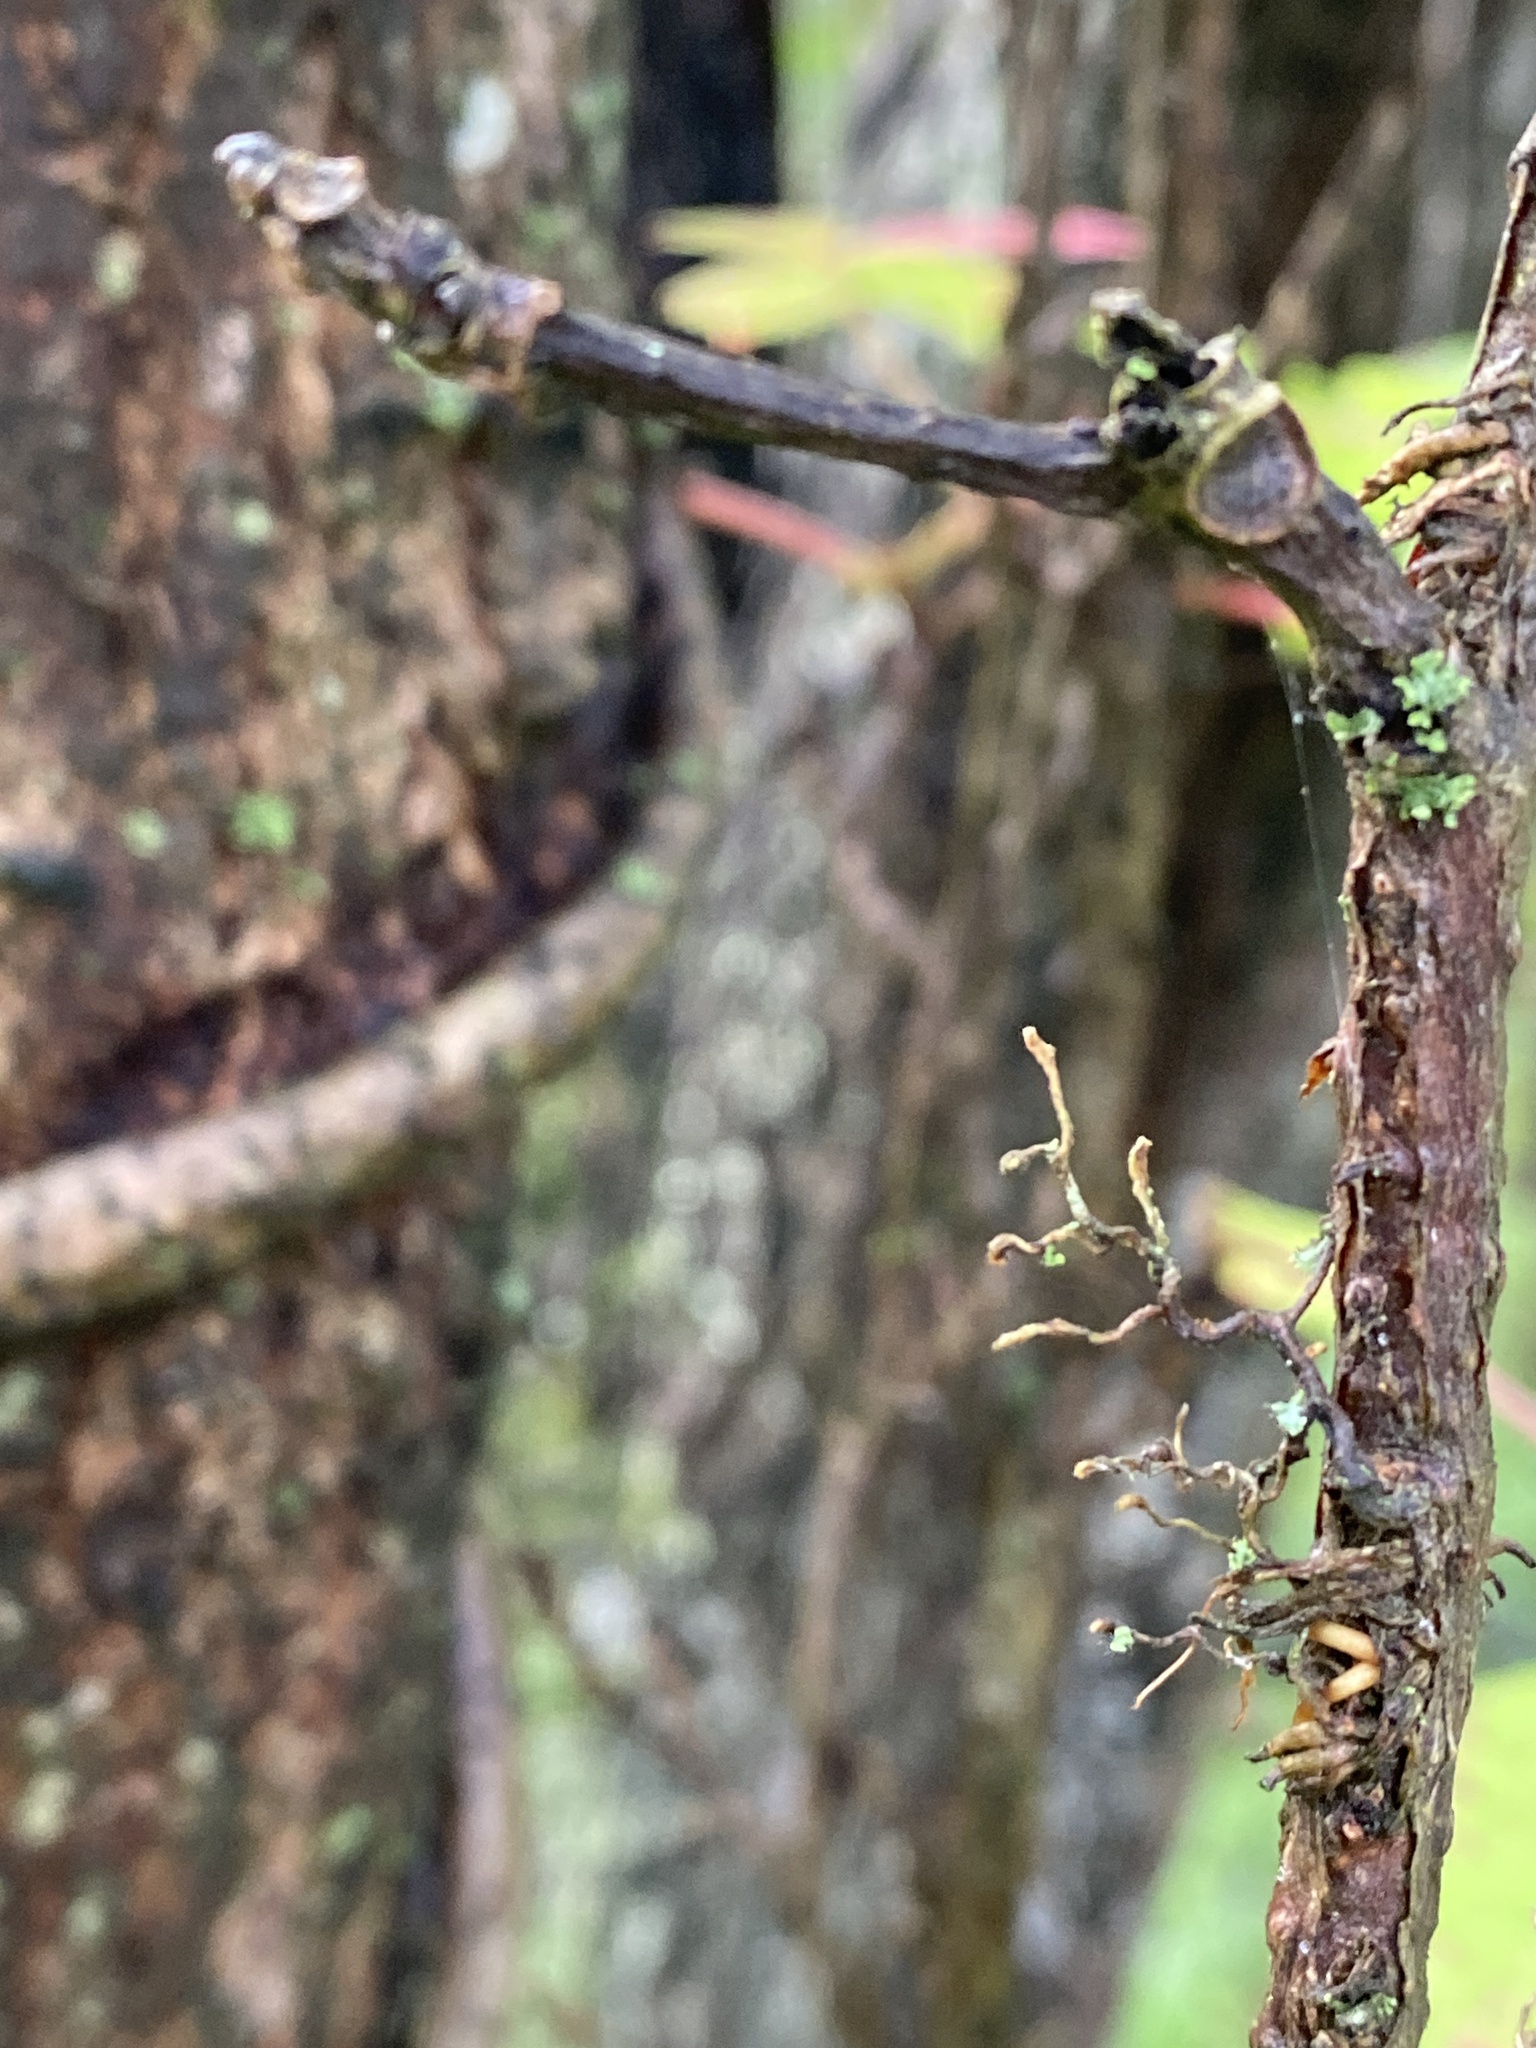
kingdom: Plantae
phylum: Tracheophyta
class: Magnoliopsida
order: Vitales
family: Vitaceae
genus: Parthenocissus
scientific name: Parthenocissus quinquefolia
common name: Virginia-creeper
